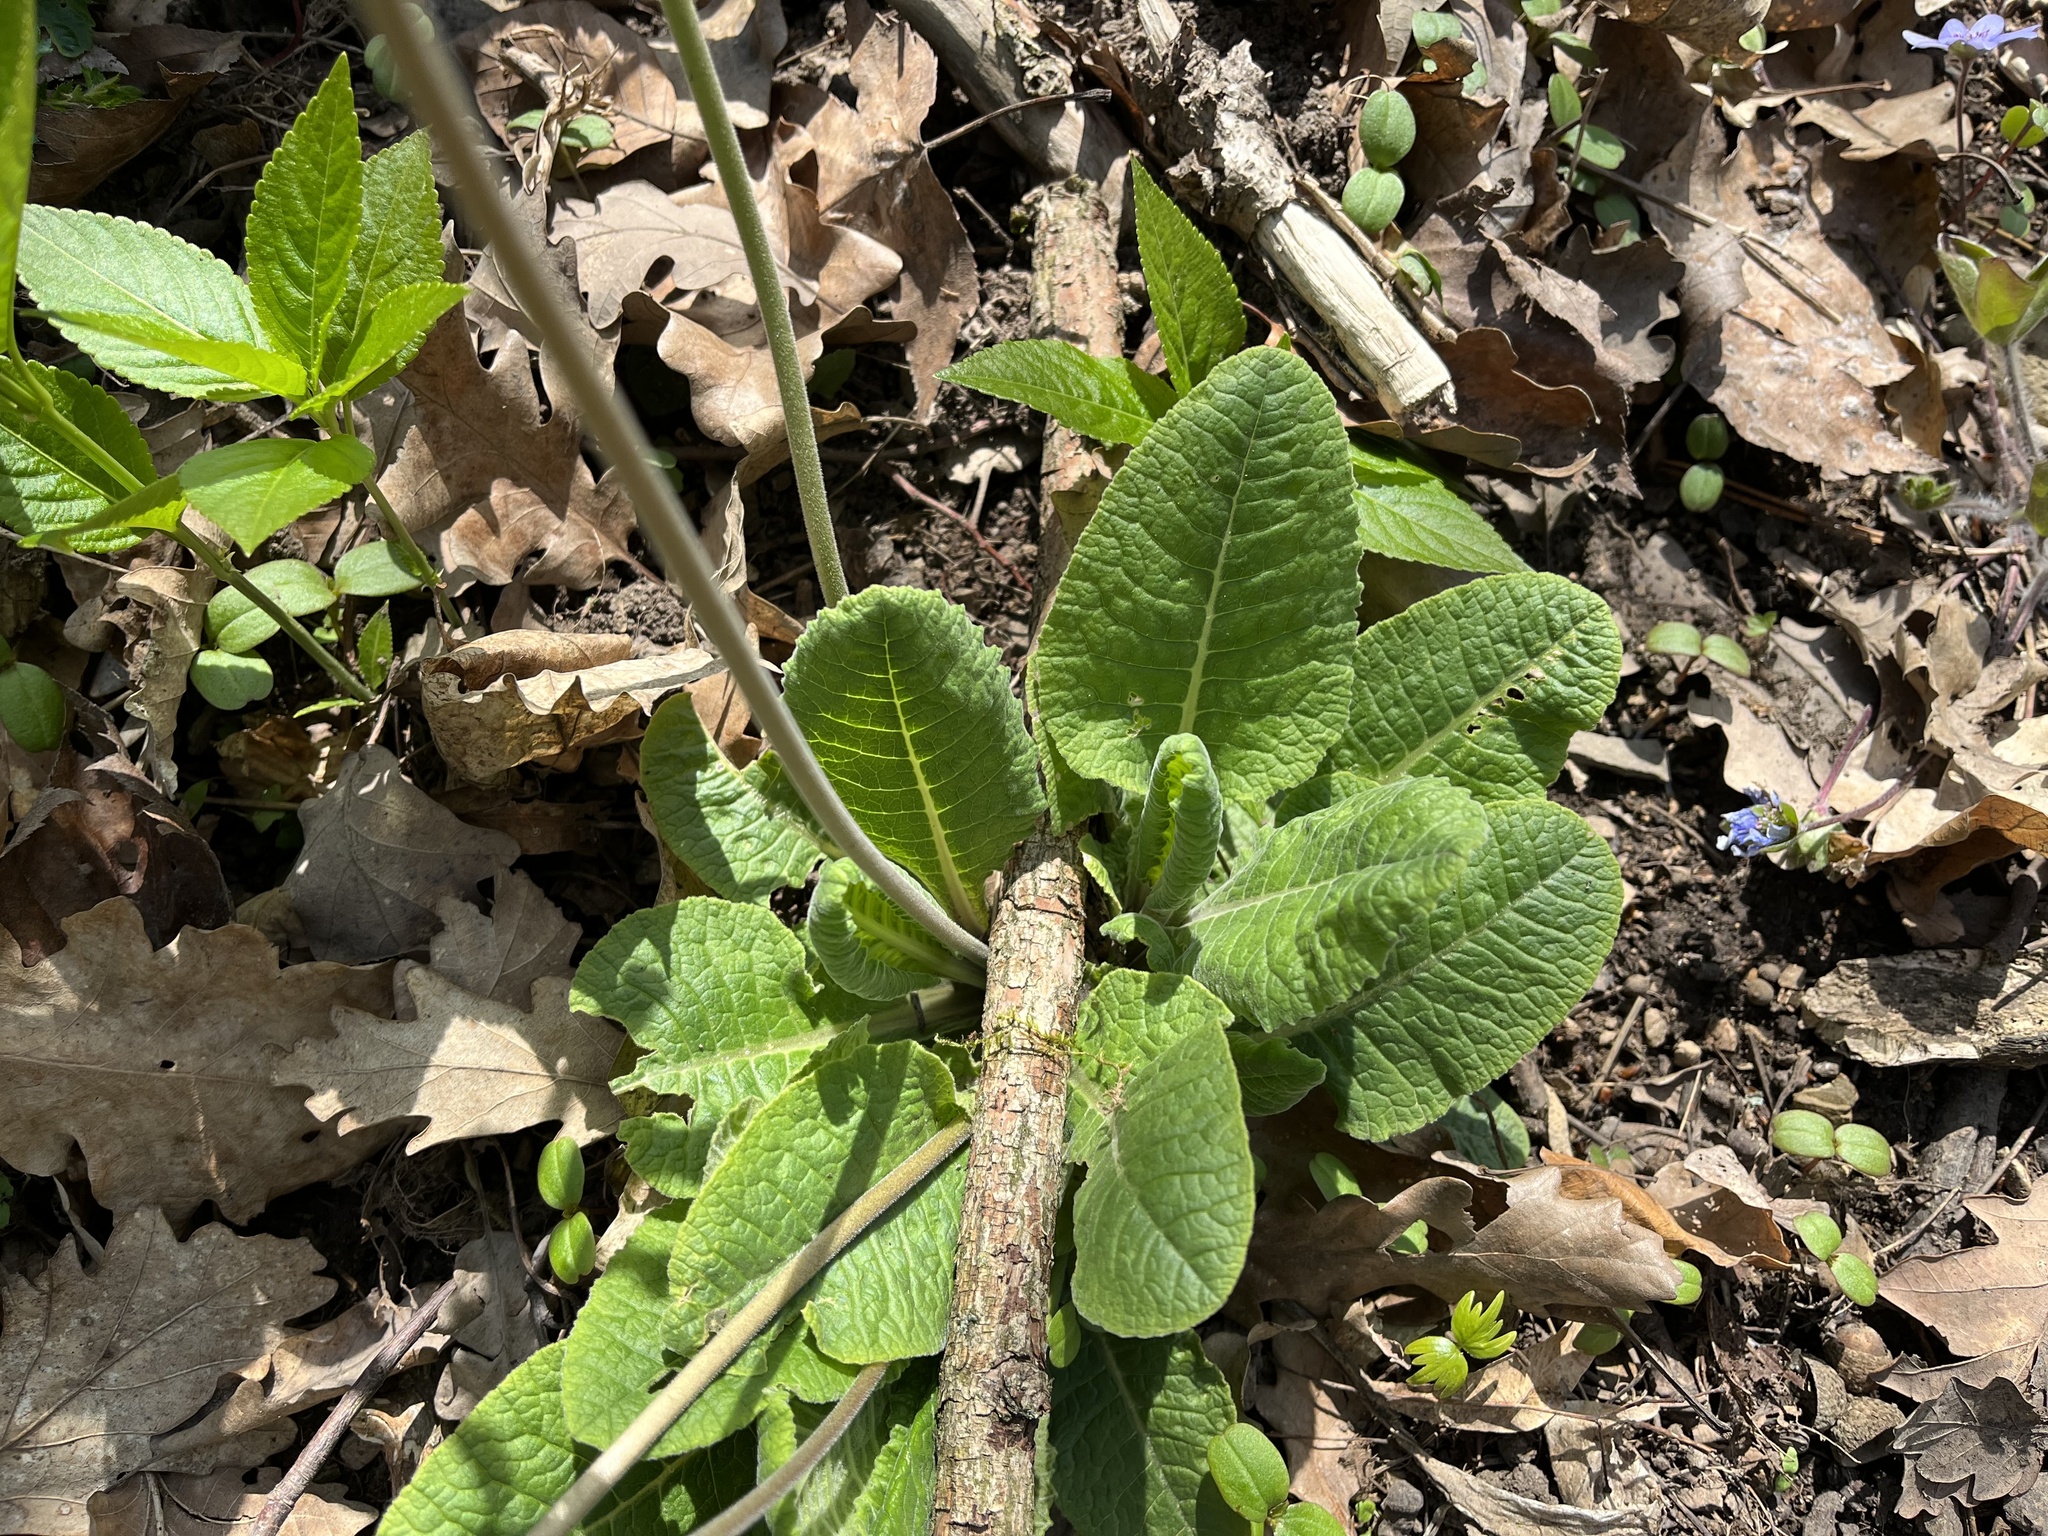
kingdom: Plantae
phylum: Tracheophyta
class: Magnoliopsida
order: Ericales
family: Primulaceae
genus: Primula
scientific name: Primula veris
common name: Cowslip
